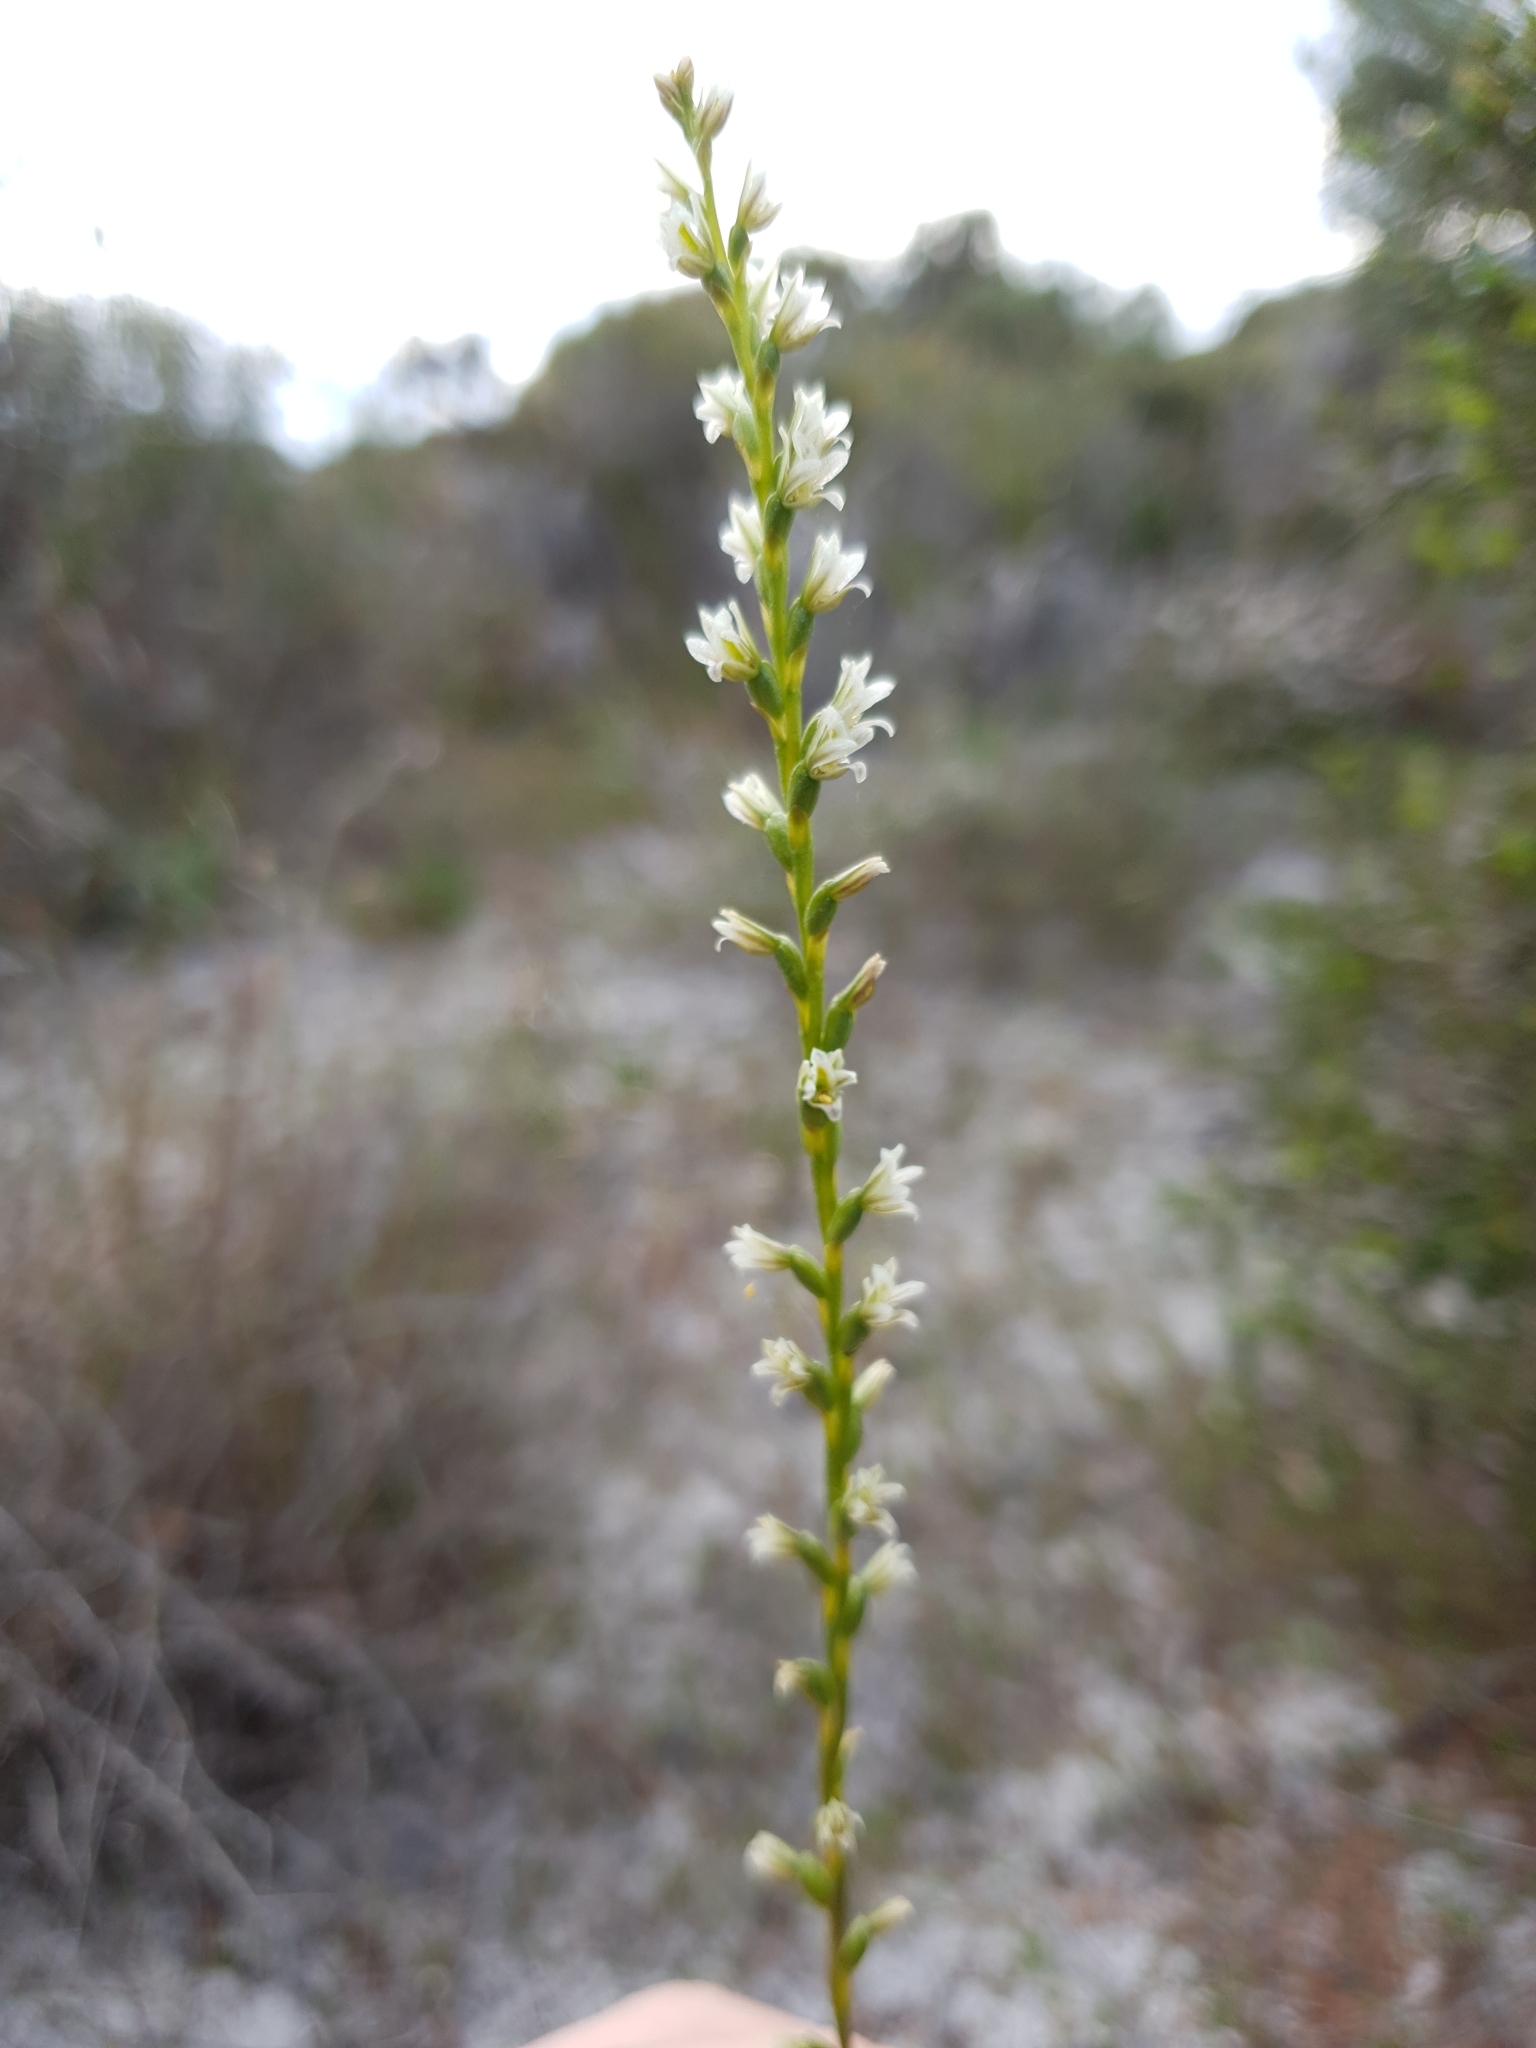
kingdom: Plantae
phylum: Tracheophyta
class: Liliopsida
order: Asparagales
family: Orchidaceae
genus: Prasophyllum
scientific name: Prasophyllum plumiforme
